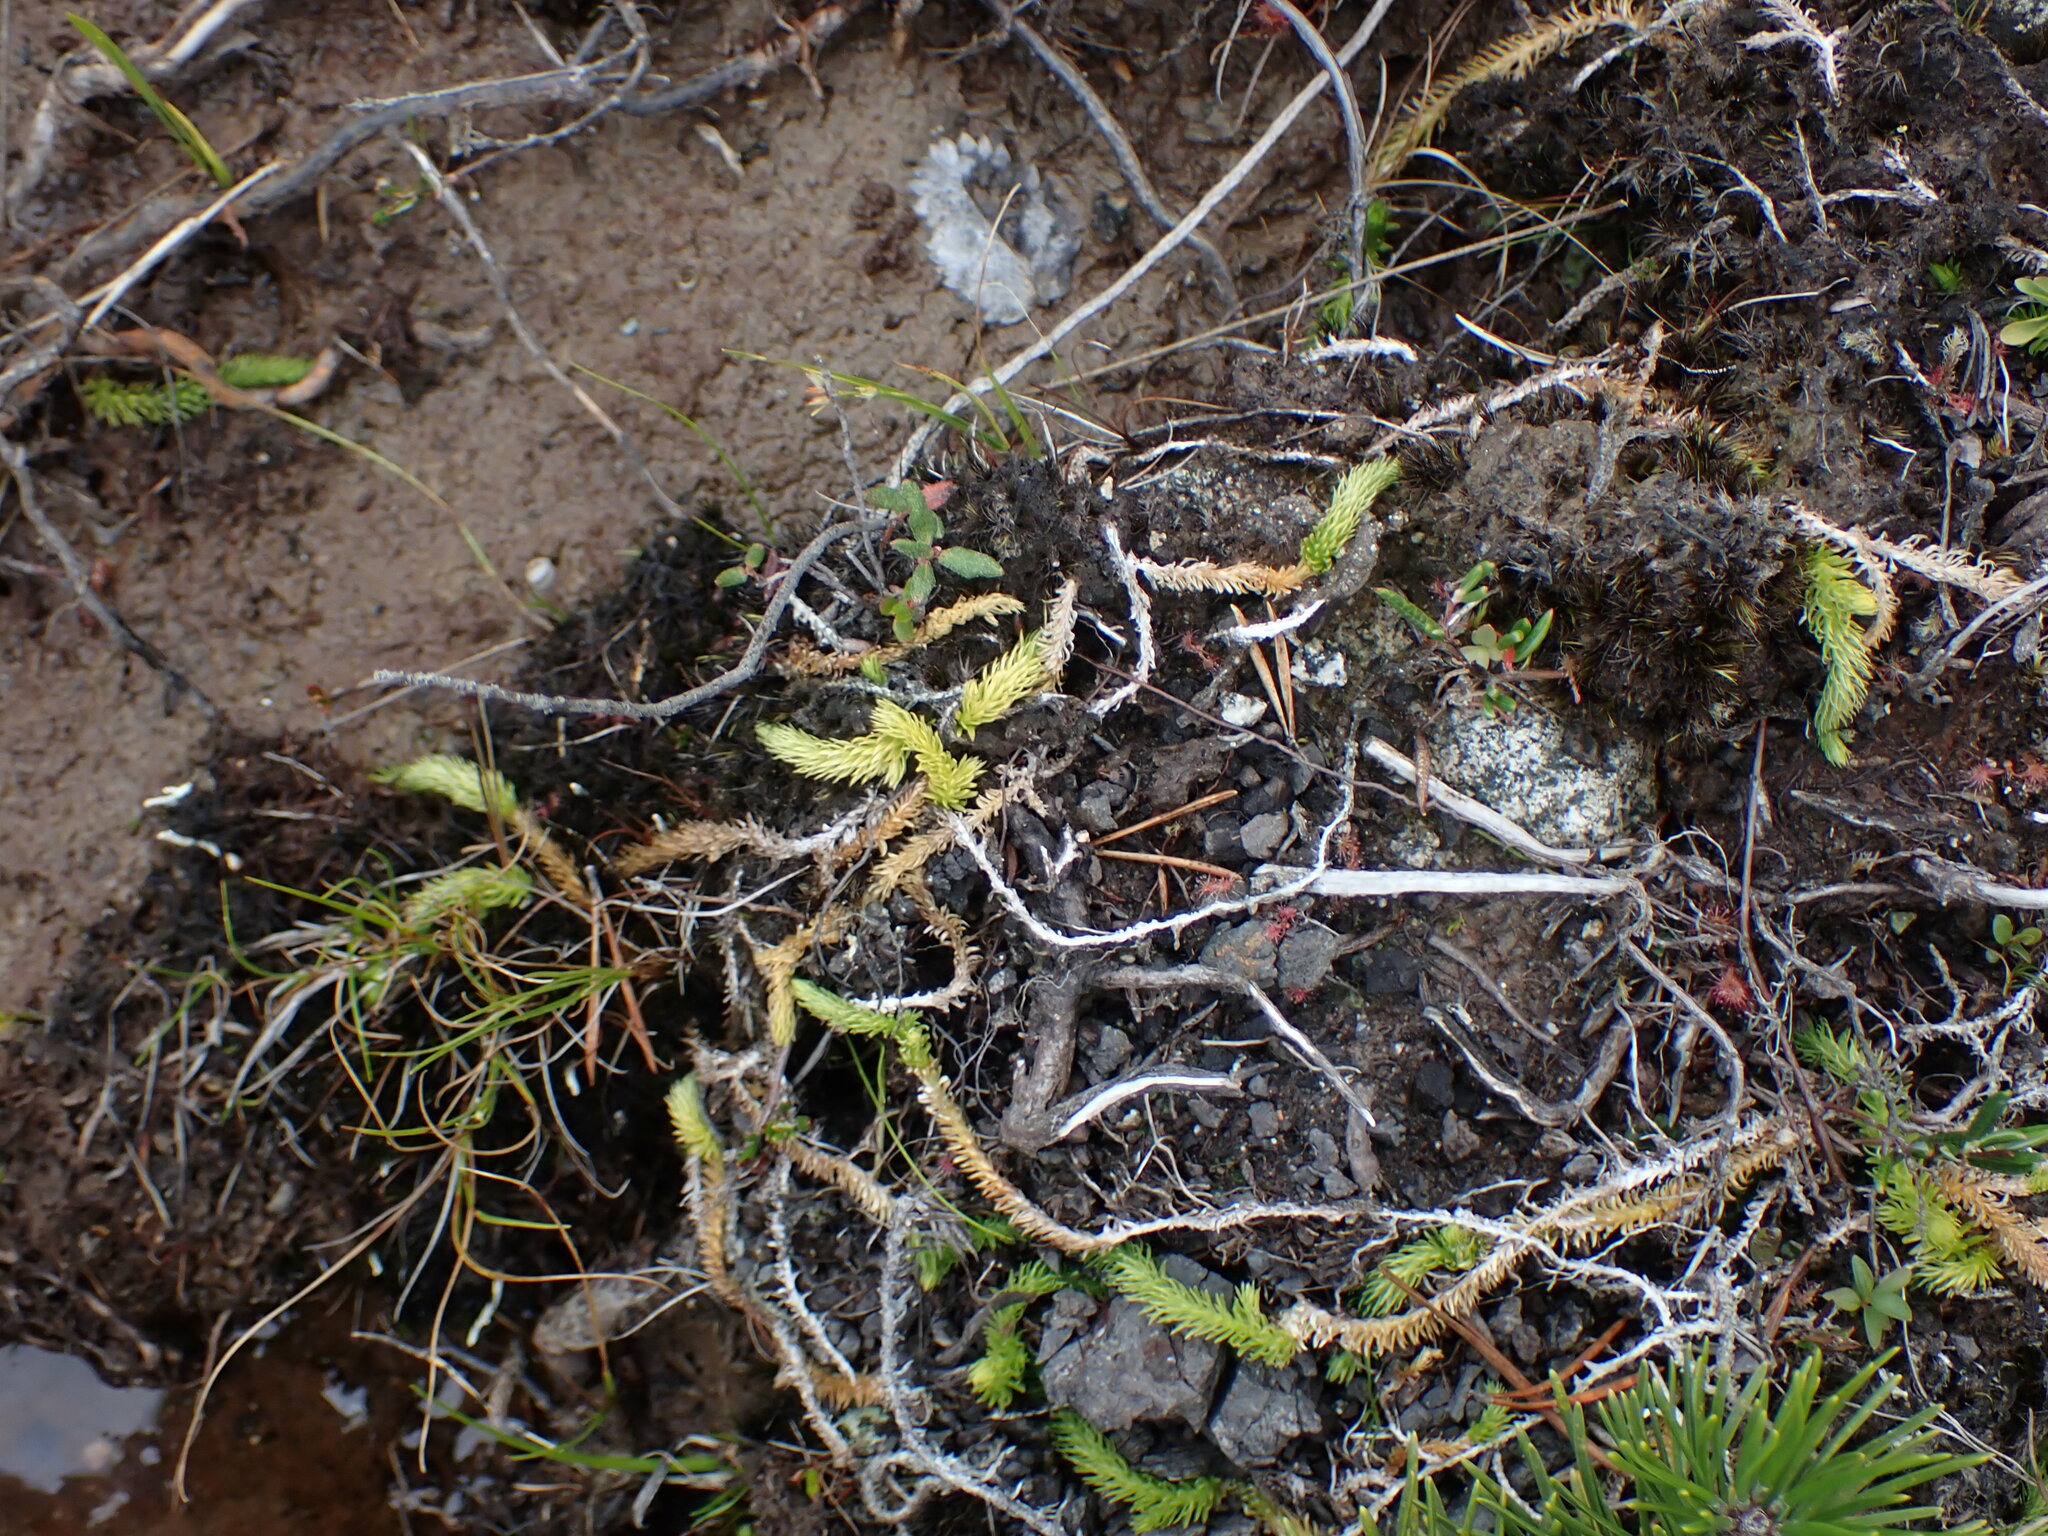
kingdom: Plantae
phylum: Tracheophyta
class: Lycopodiopsida
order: Lycopodiales
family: Lycopodiaceae
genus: Lycopodiella
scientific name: Lycopodiella inundata
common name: Marsh clubmoss
